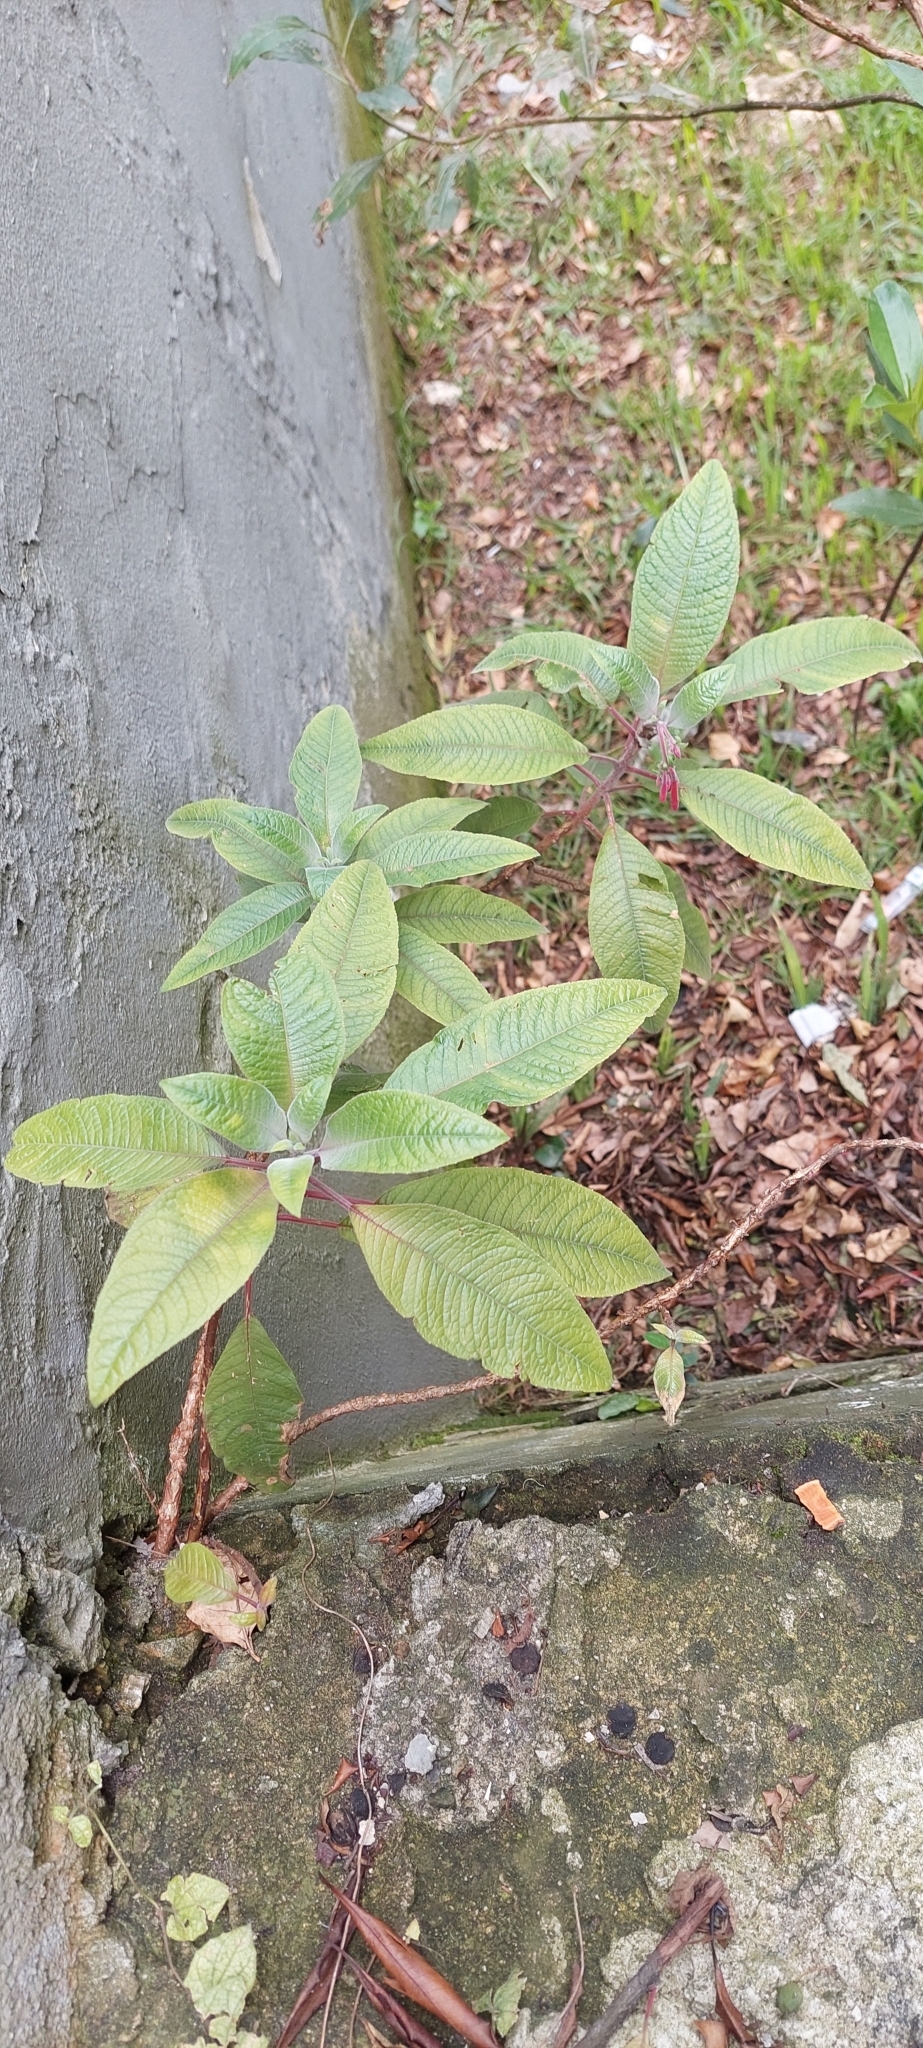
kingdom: Plantae
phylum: Tracheophyta
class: Magnoliopsida
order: Myrtales
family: Onagraceae
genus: Fuchsia
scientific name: Fuchsia boliviana
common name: Bolivian fuchsia
